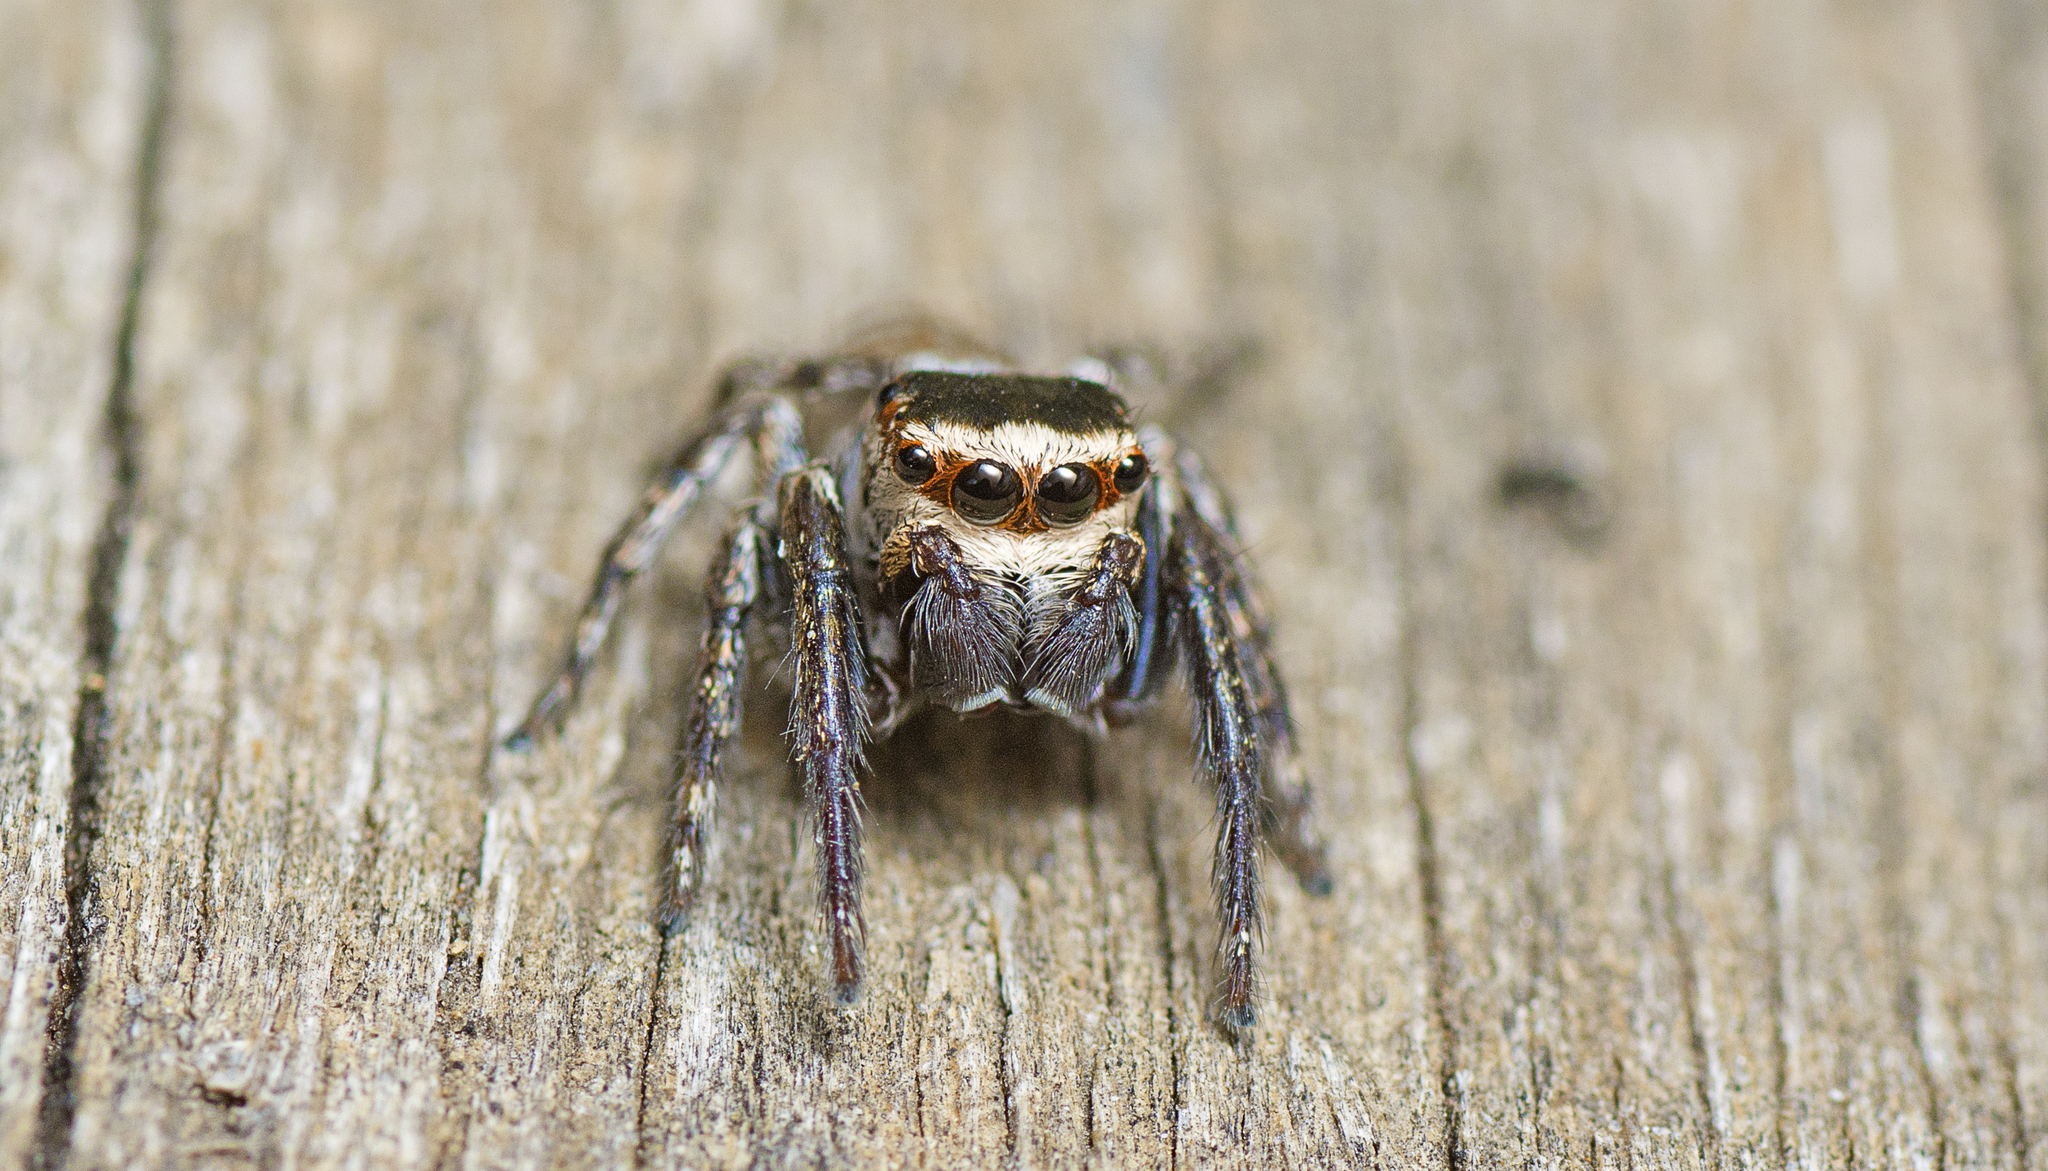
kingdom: Animalia
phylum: Arthropoda
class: Arachnida
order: Araneae
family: Salticidae
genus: Euryattus
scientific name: Euryattus bleekeri
